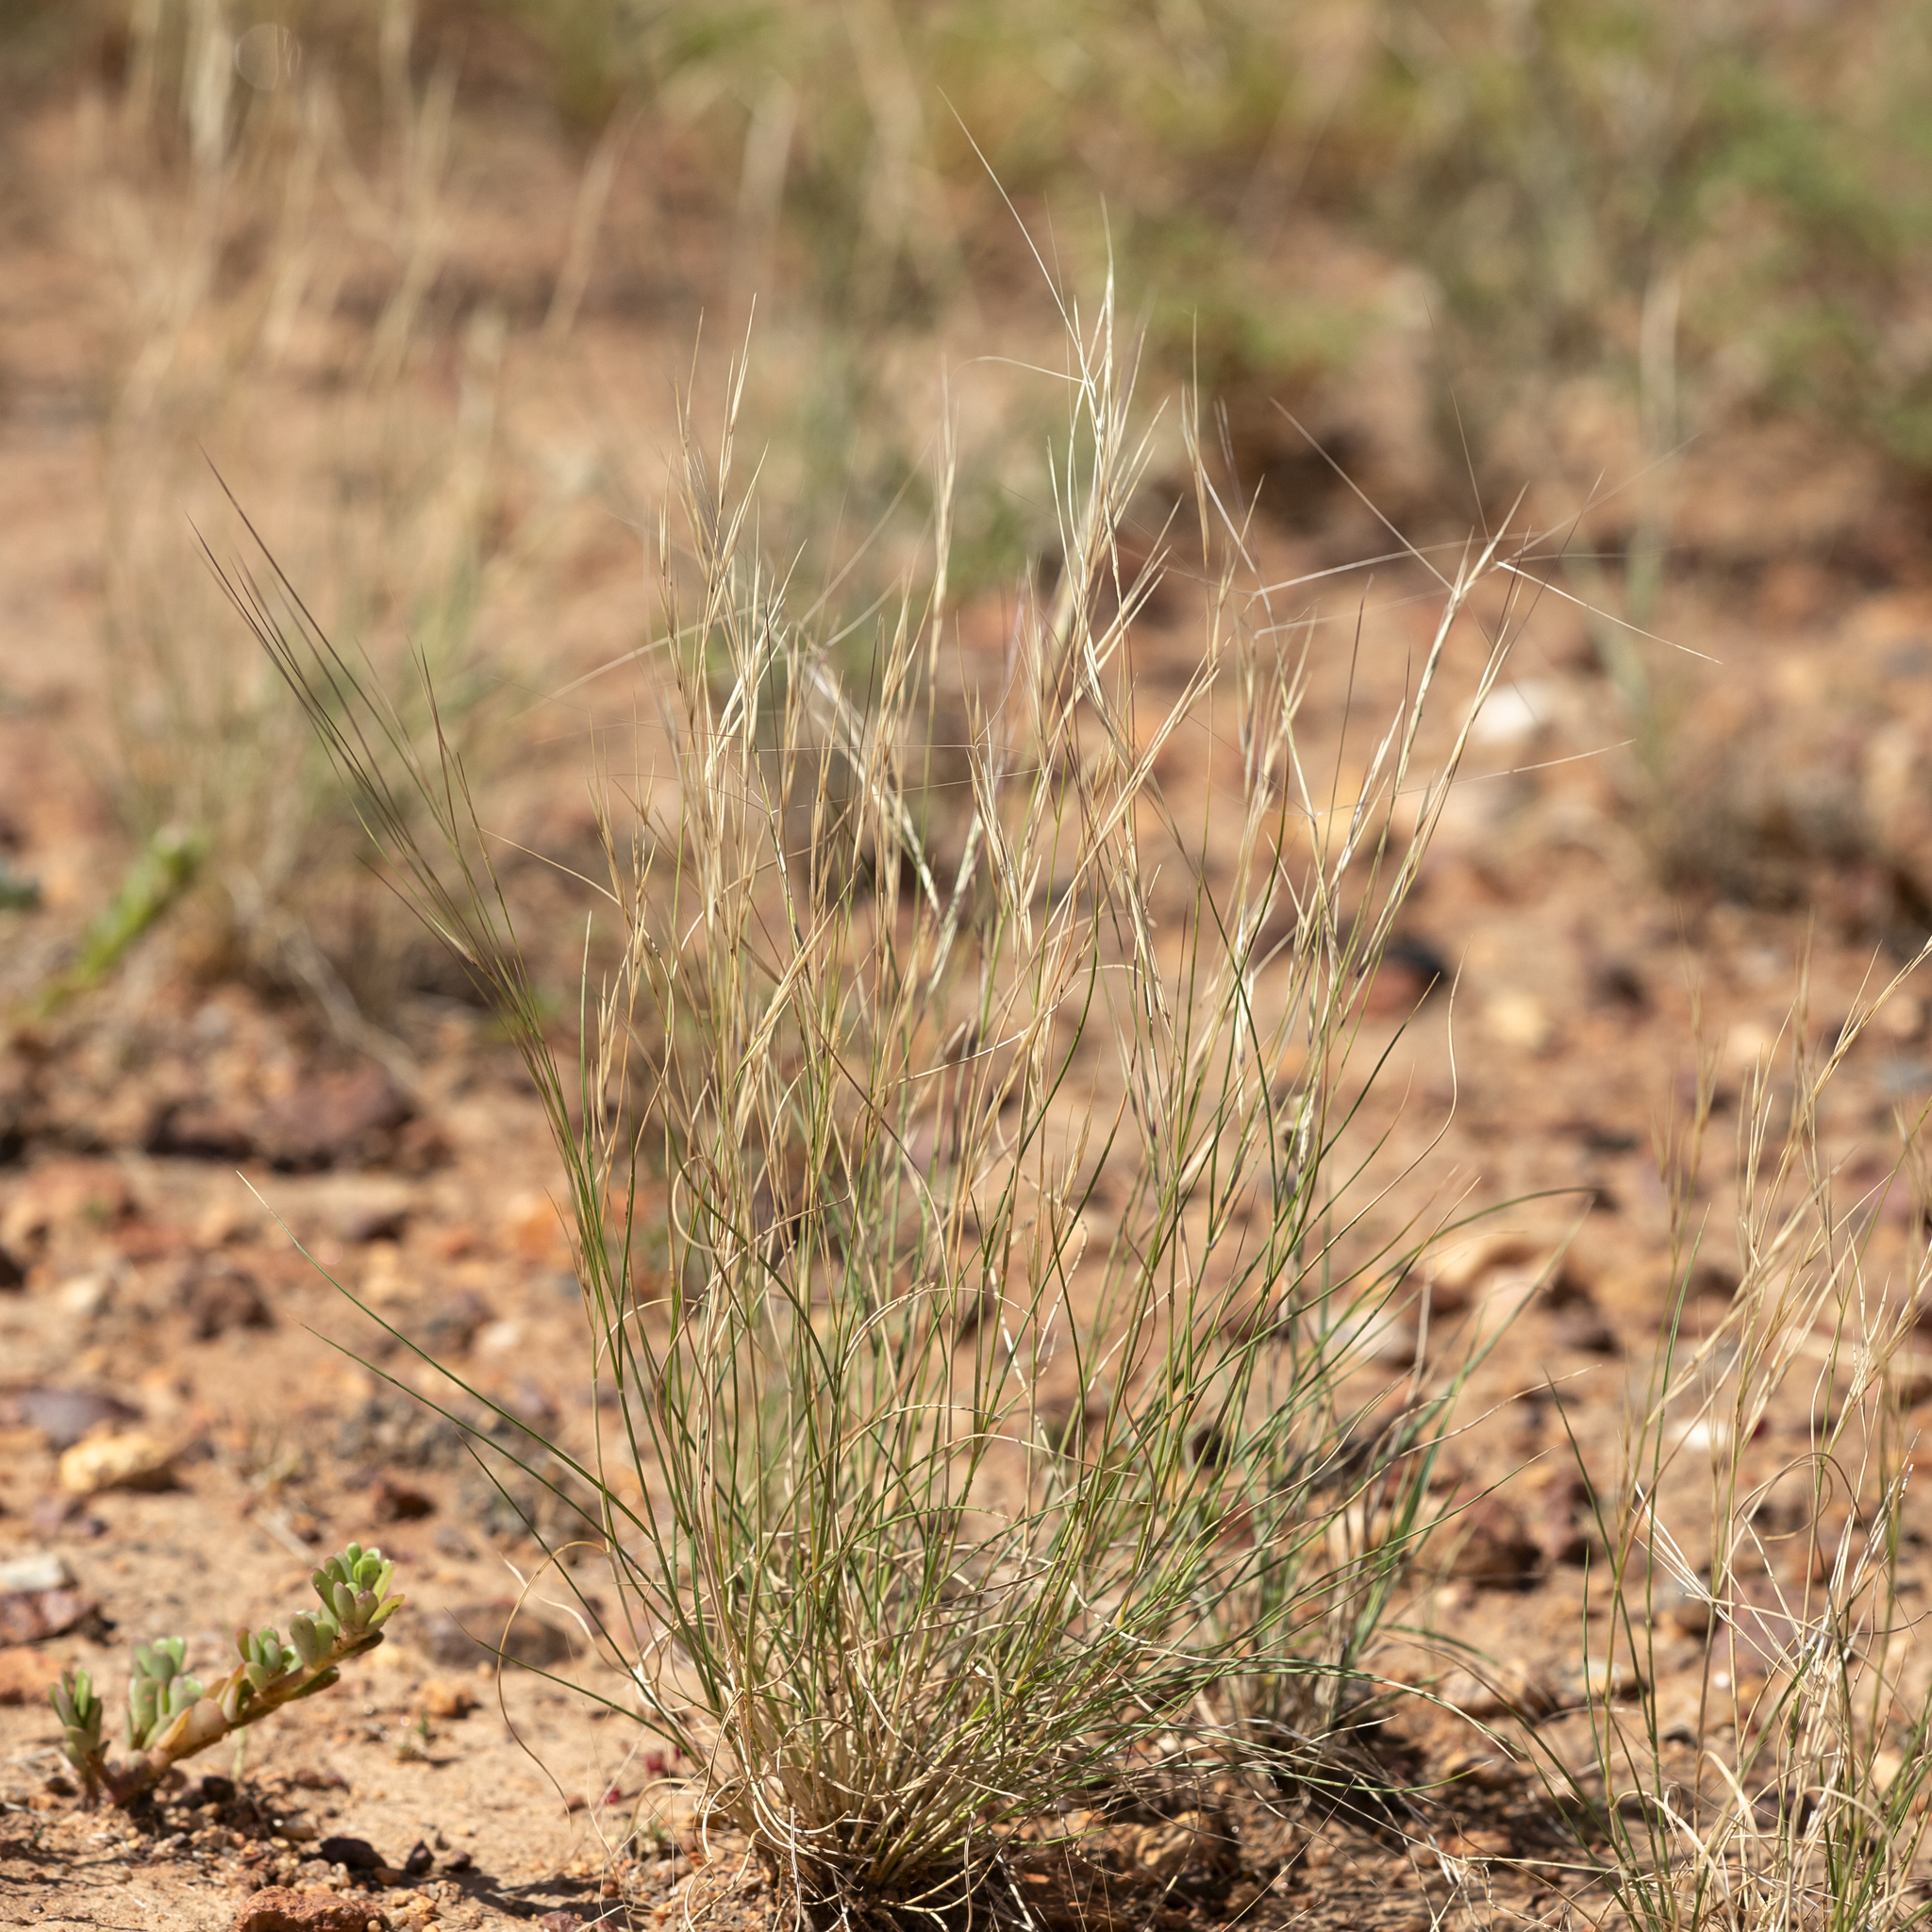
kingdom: Plantae
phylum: Tracheophyta
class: Liliopsida
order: Poales
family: Poaceae
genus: Aristida
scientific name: Aristida contorta
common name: Bunch kerosene grass
